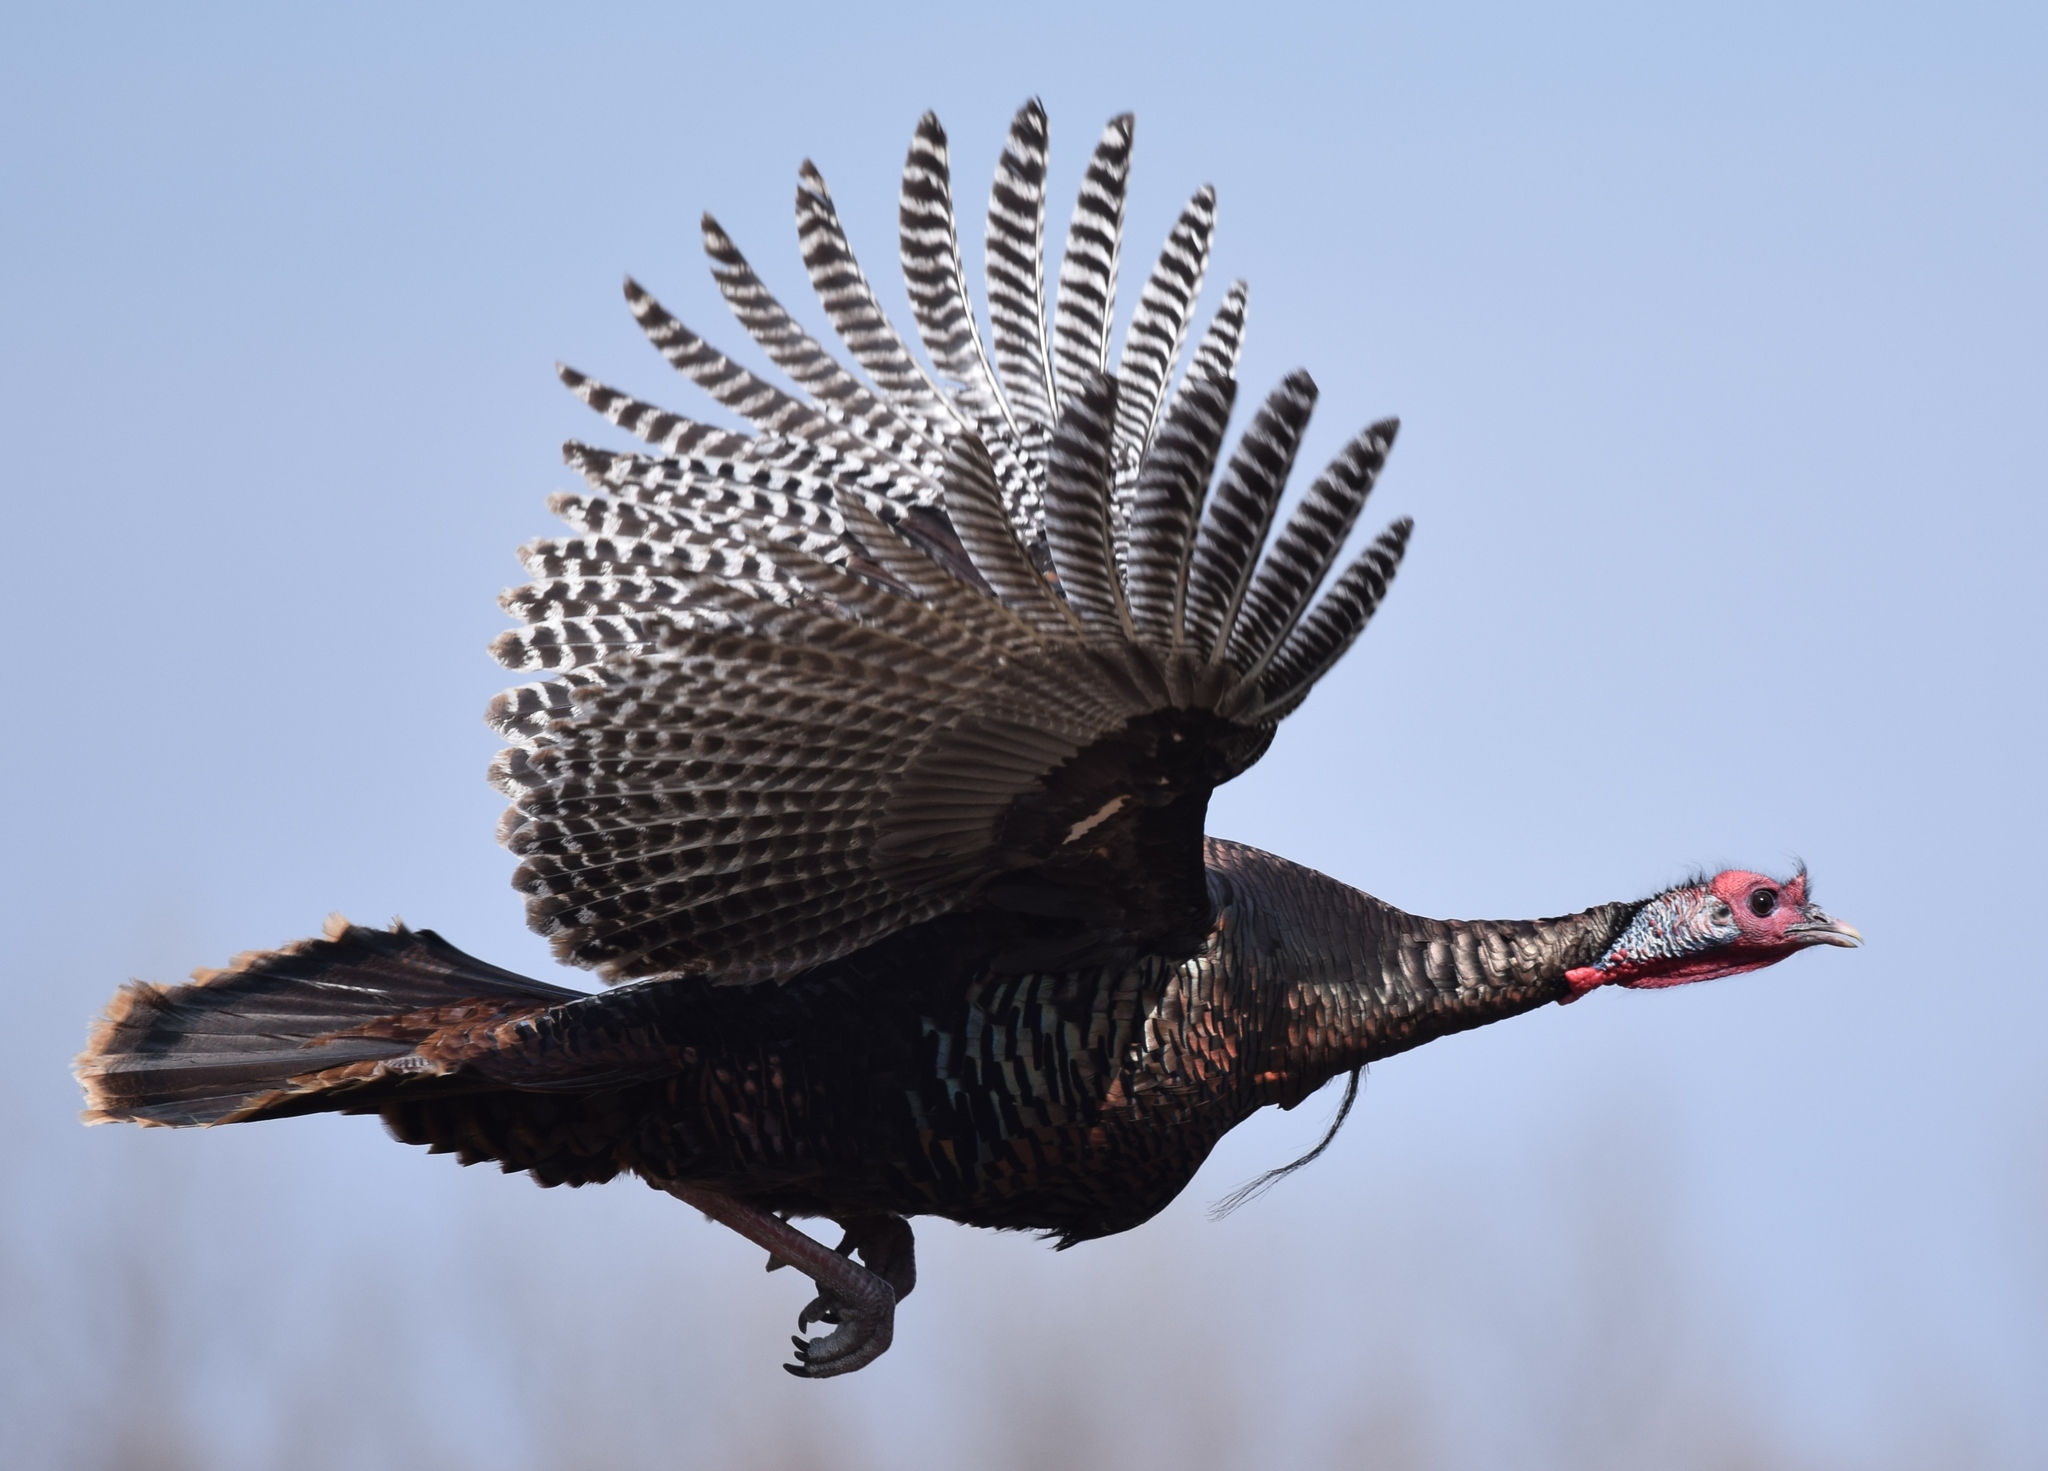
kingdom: Animalia
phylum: Chordata
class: Aves
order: Galliformes
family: Phasianidae
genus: Meleagris
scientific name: Meleagris gallopavo
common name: Wild turkey
